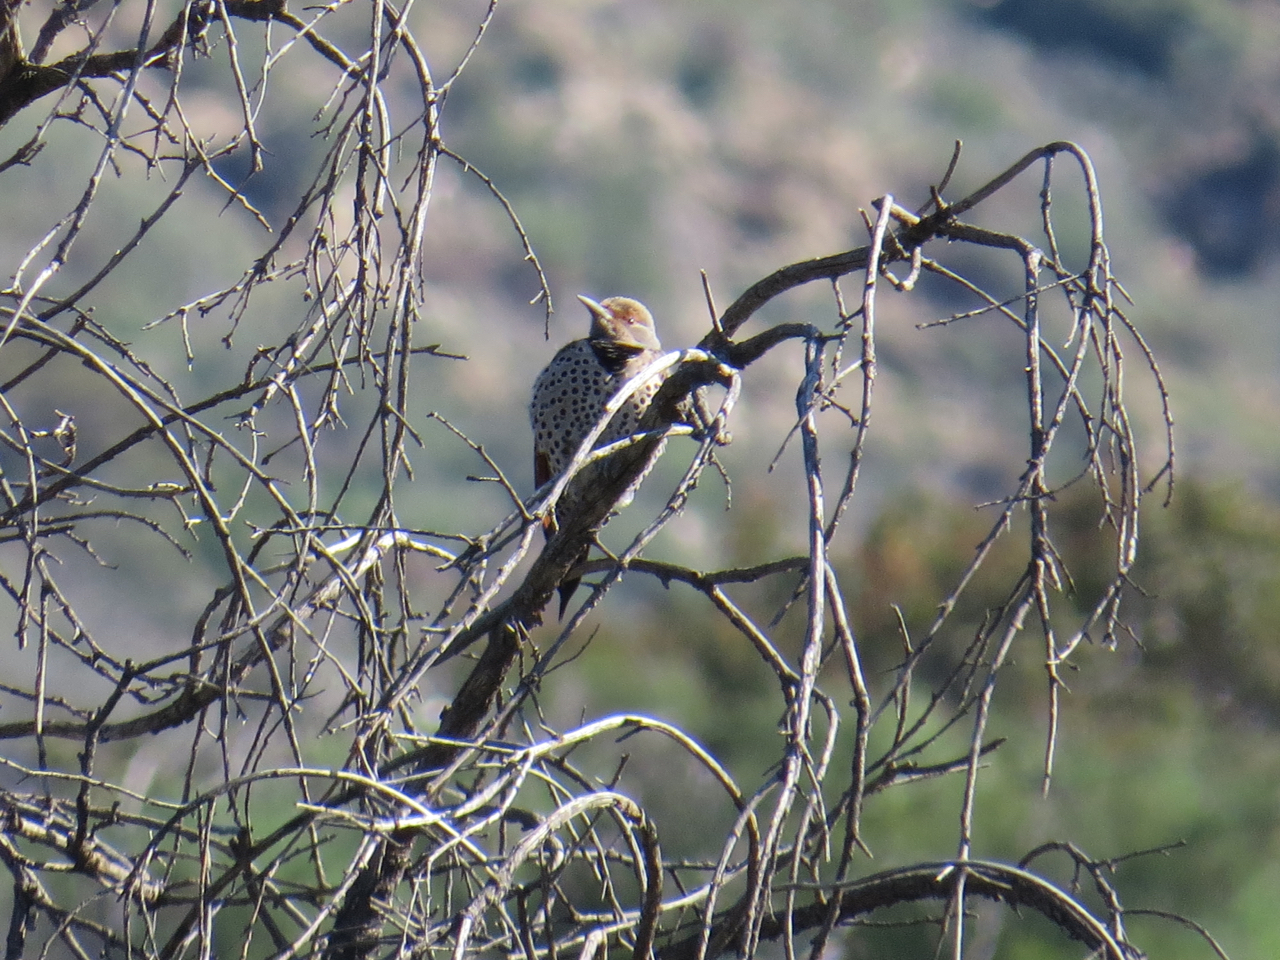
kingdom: Animalia
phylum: Chordata
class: Aves
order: Piciformes
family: Picidae
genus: Colaptes
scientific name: Colaptes auratus
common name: Northern flicker
